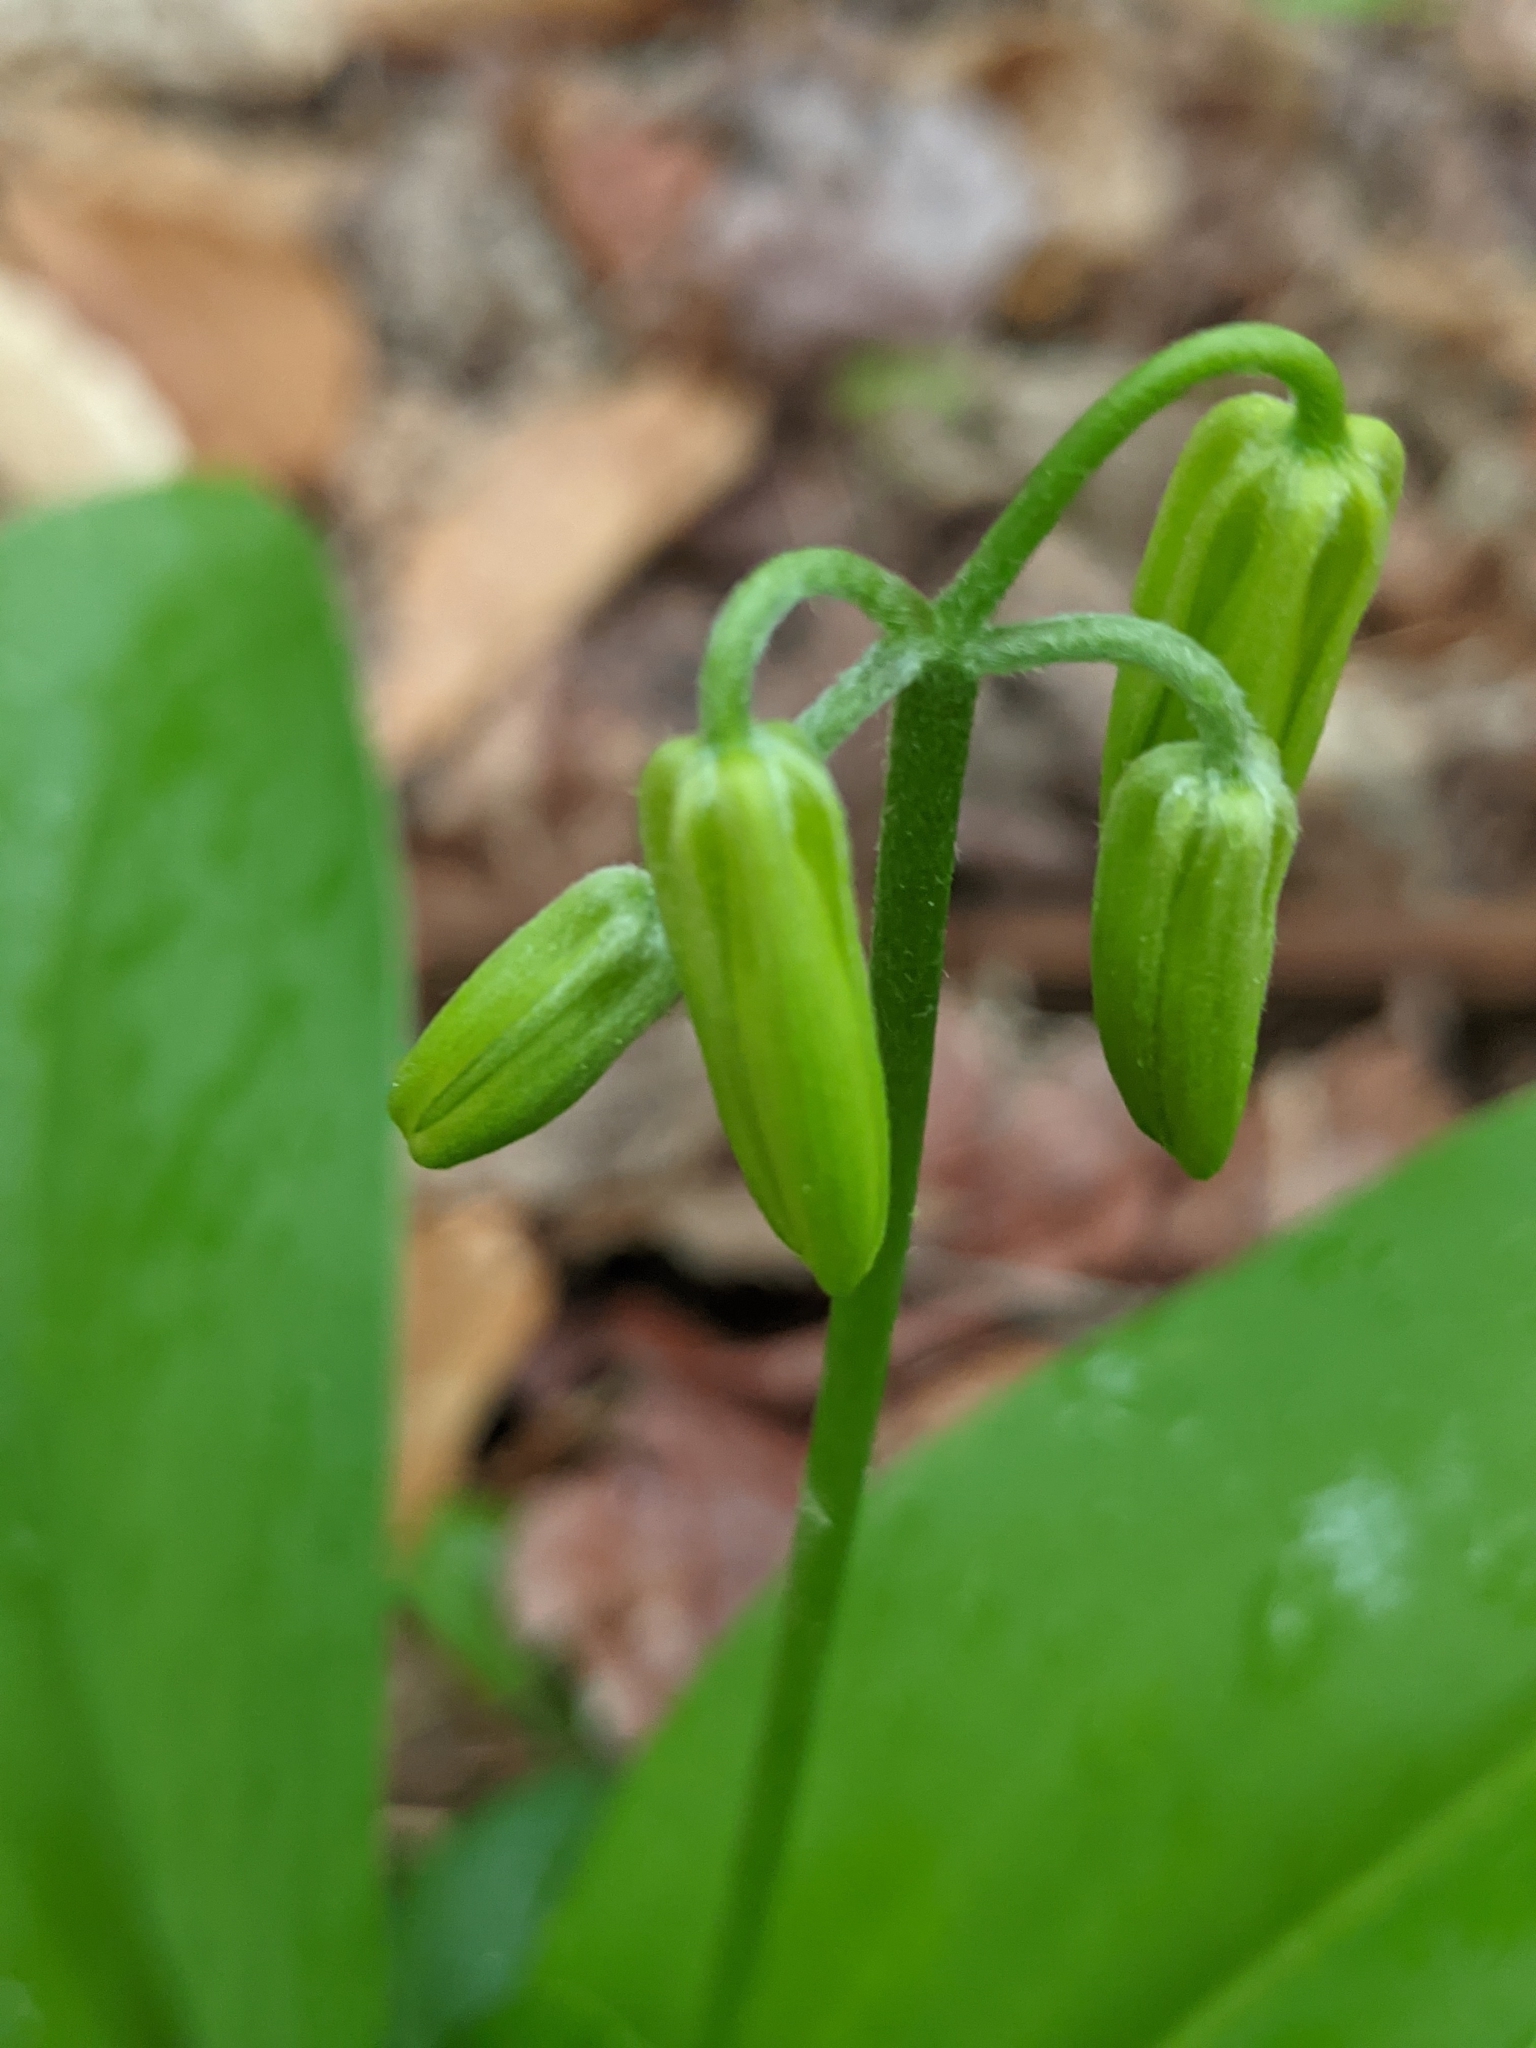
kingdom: Plantae
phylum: Tracheophyta
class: Liliopsida
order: Liliales
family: Liliaceae
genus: Clintonia
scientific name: Clintonia borealis
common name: Yellow clintonia
